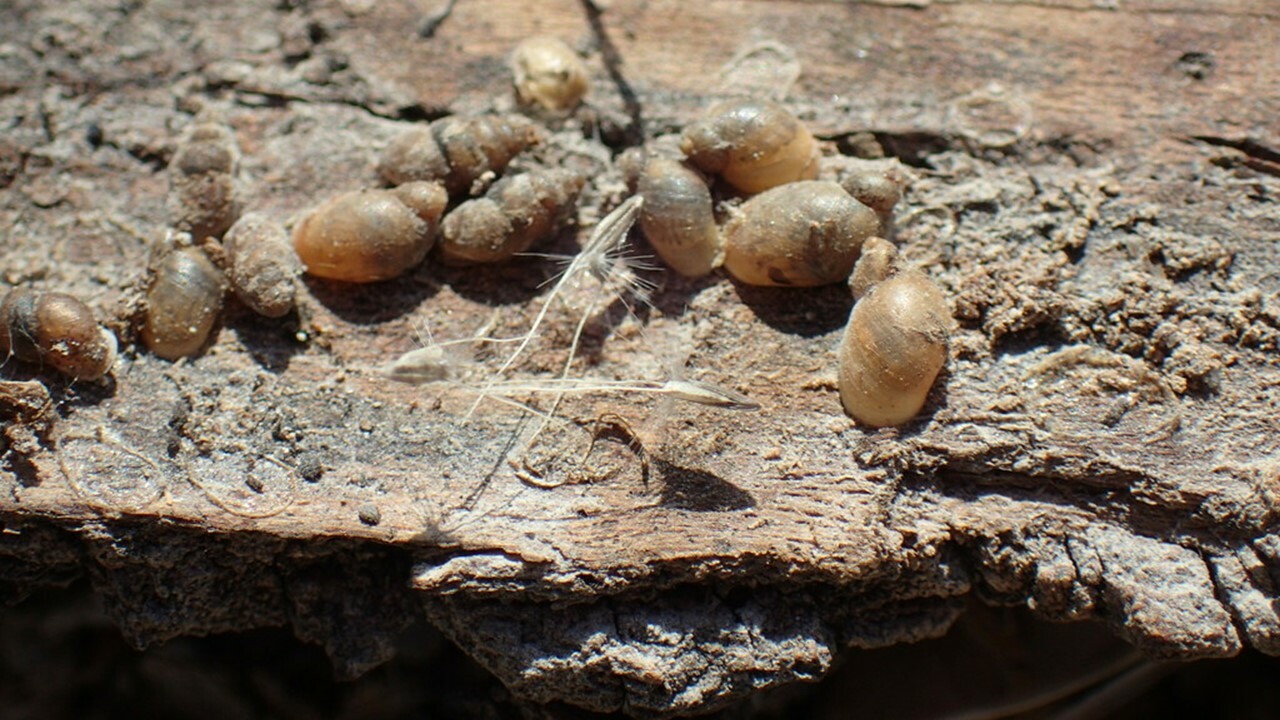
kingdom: Animalia
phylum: Mollusca
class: Gastropoda
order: Stylommatophora
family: Pupillidae
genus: Pupoides
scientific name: Pupoides calaharicus
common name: Kalahari chrysalis snail
